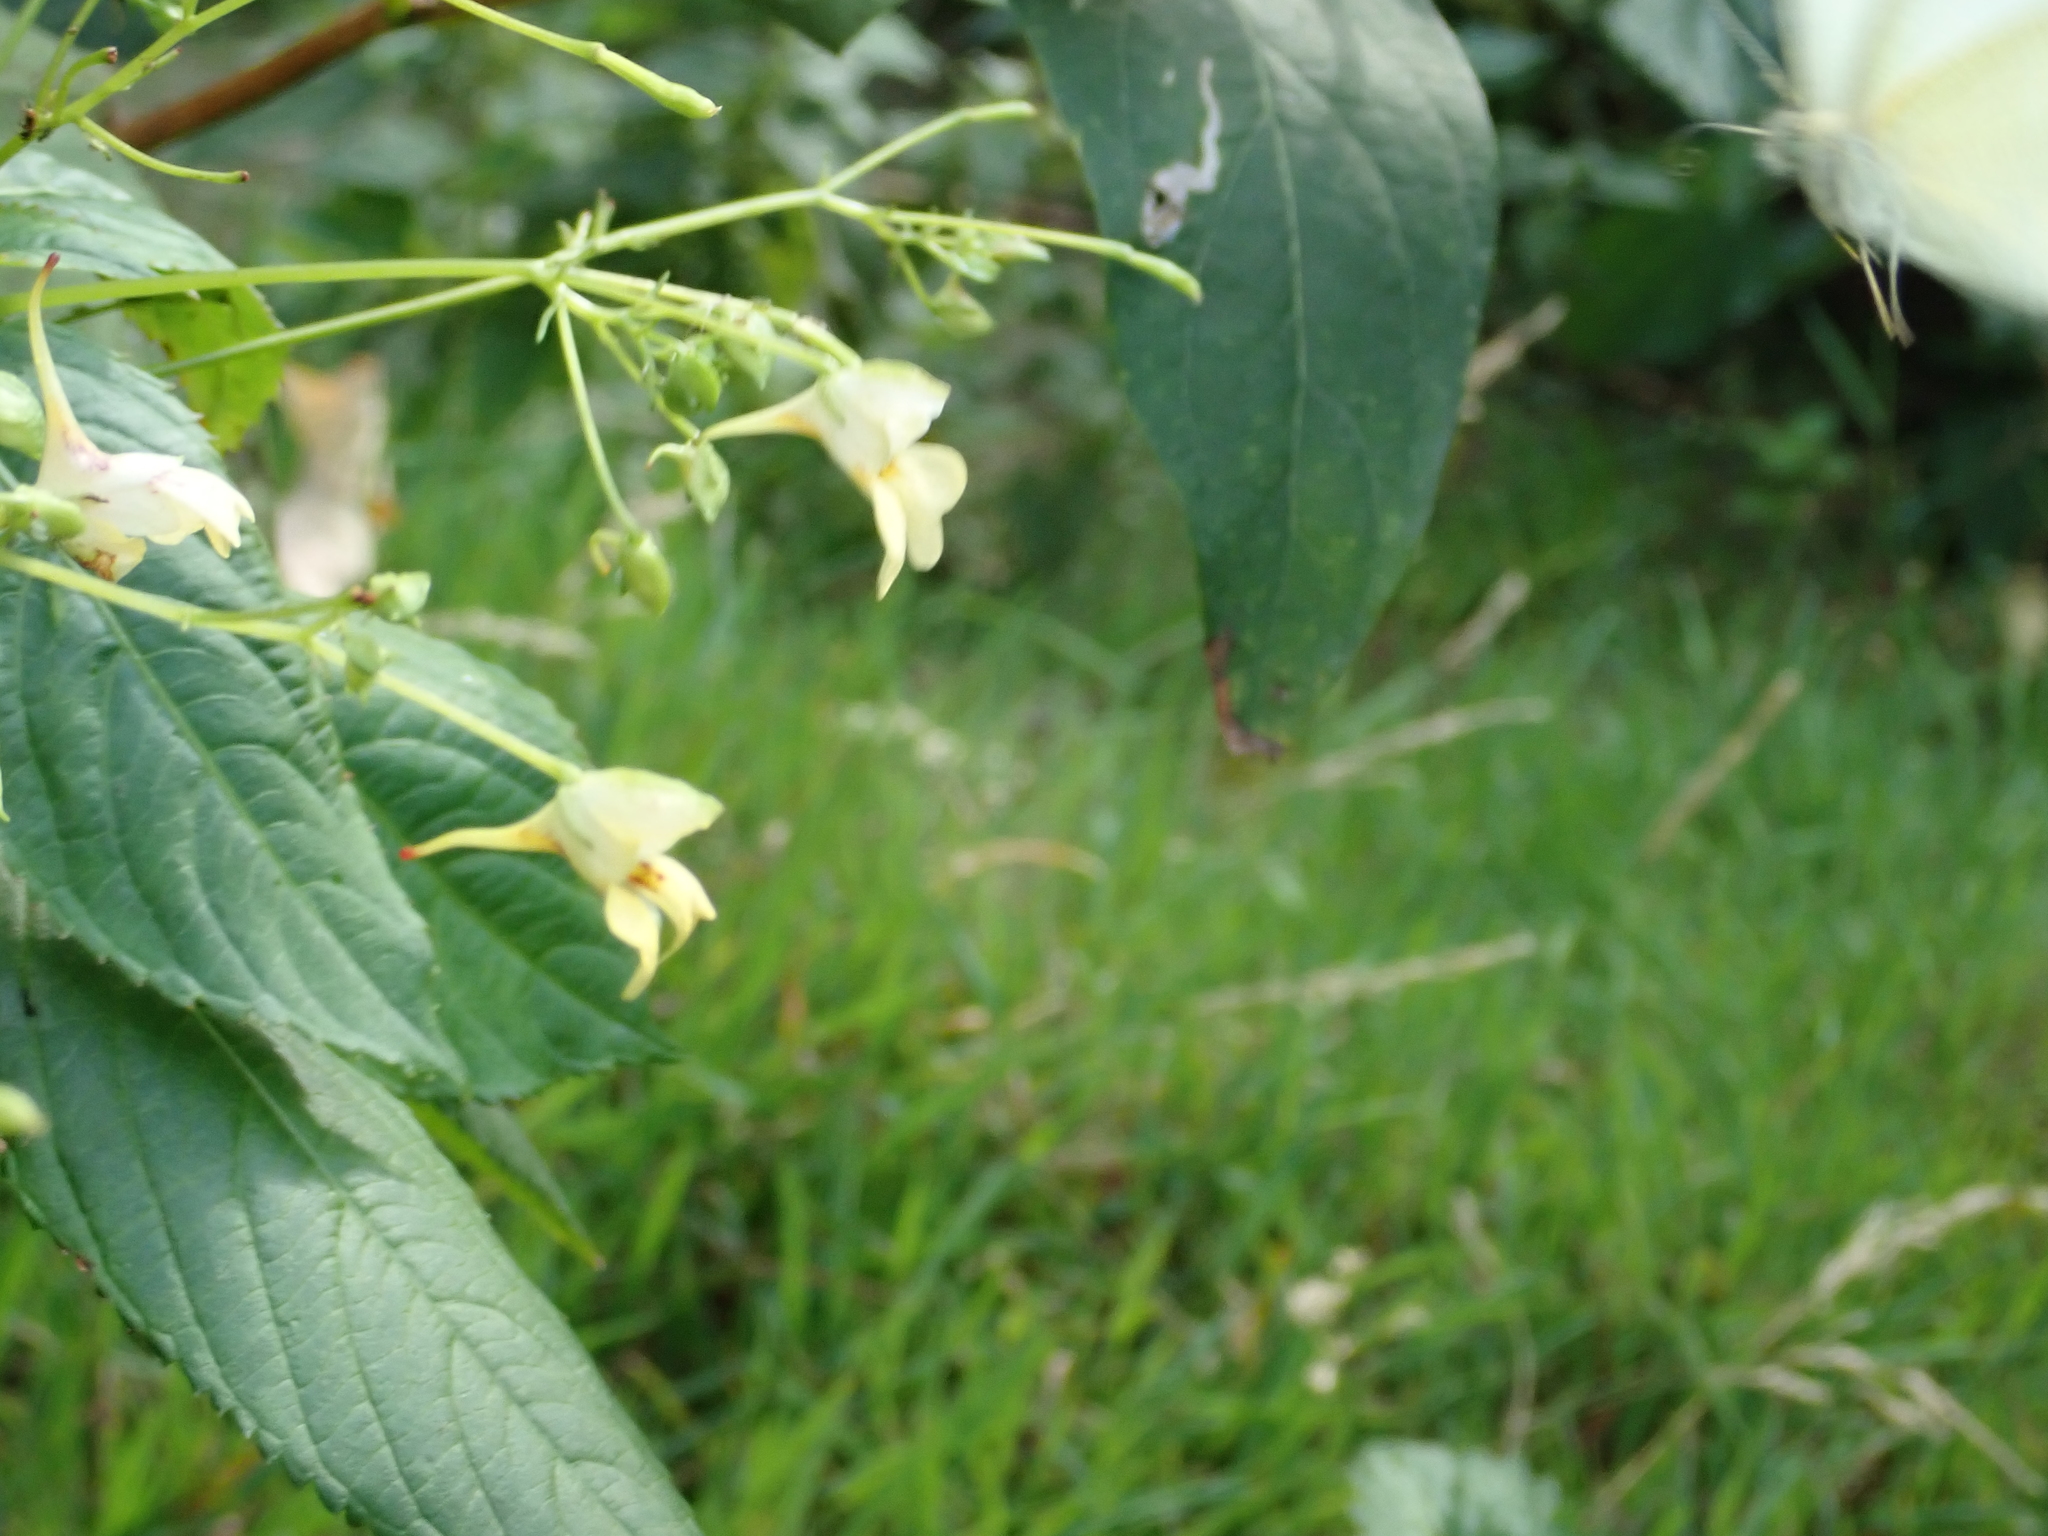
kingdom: Plantae
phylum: Tracheophyta
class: Magnoliopsida
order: Ericales
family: Balsaminaceae
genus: Impatiens
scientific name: Impatiens parviflora
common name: Small balsam
